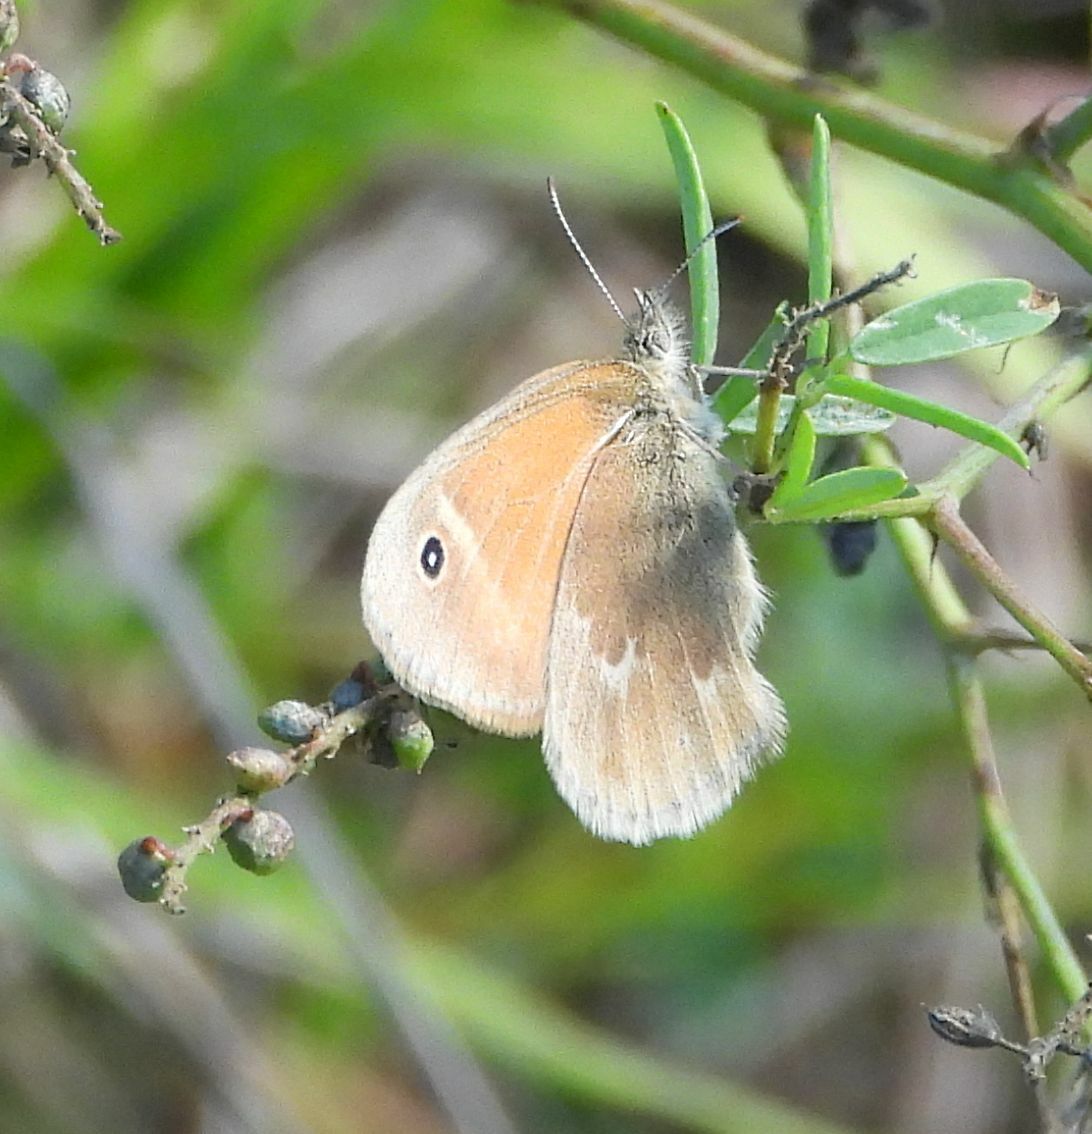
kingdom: Animalia
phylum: Arthropoda
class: Insecta
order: Lepidoptera
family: Nymphalidae
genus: Coenonympha
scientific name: Coenonympha california
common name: Common ringlet
